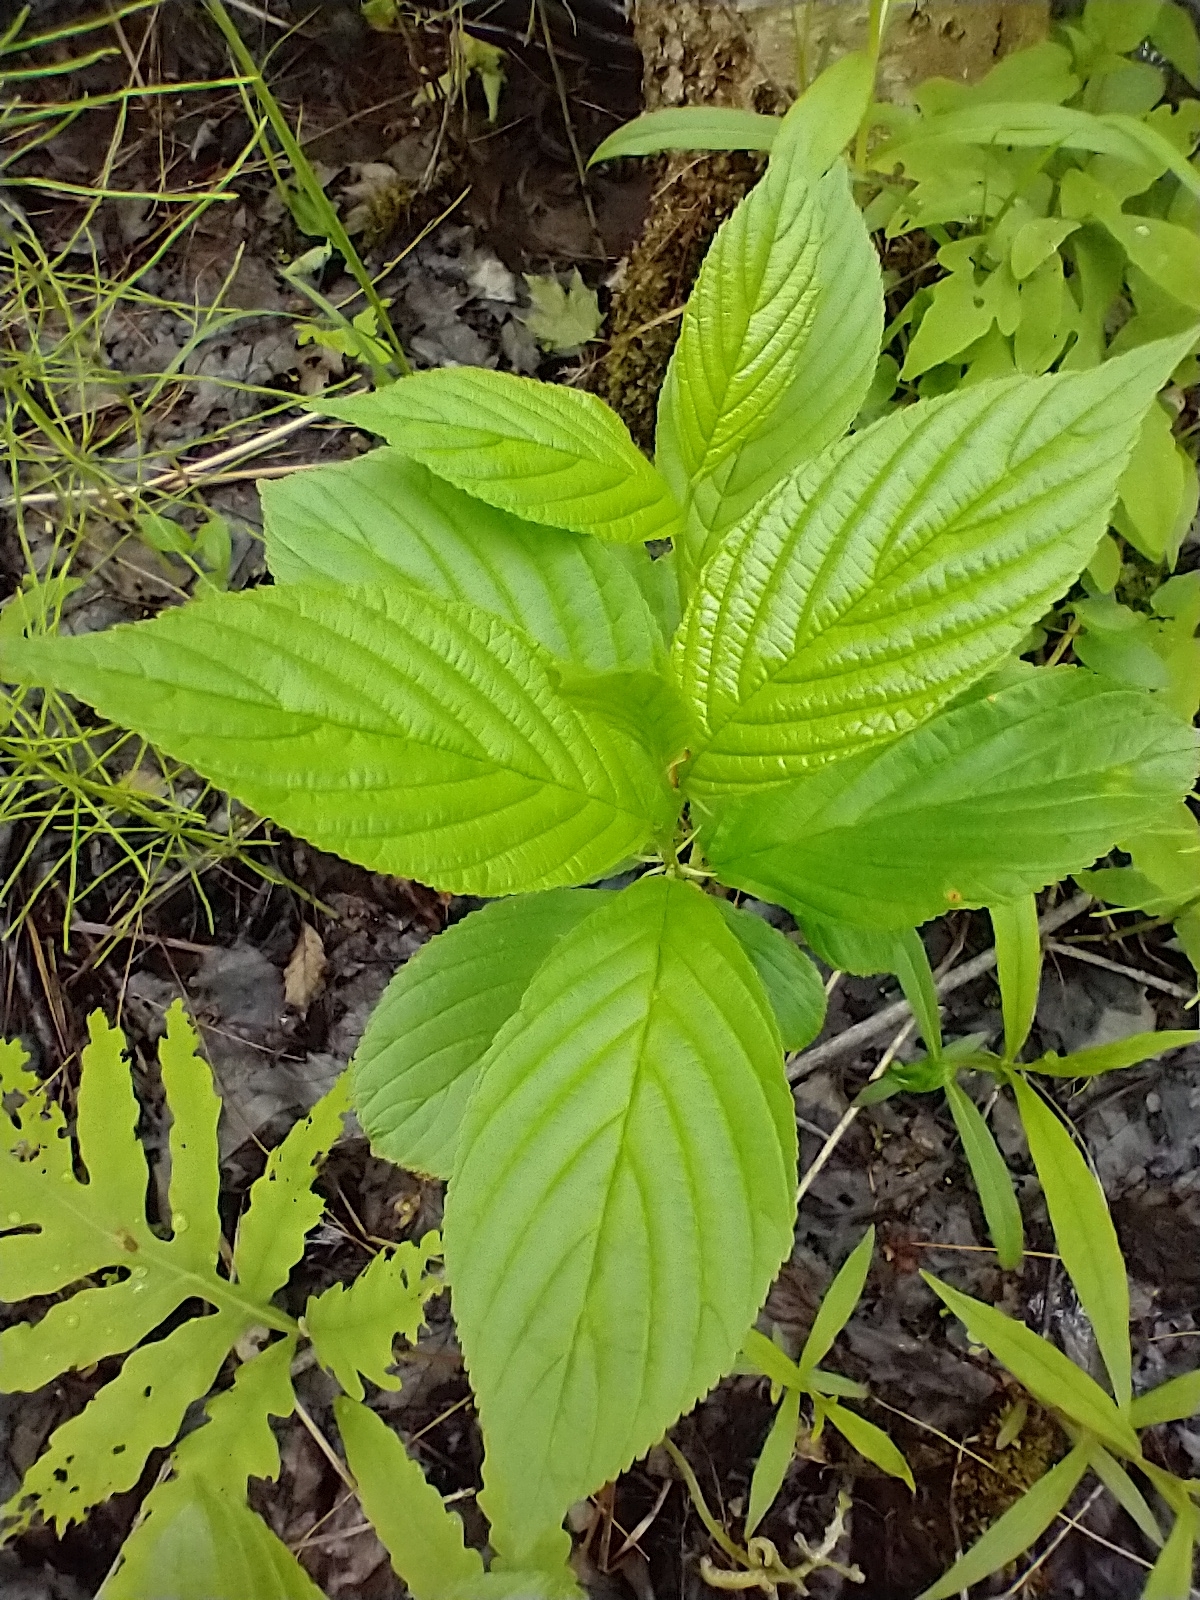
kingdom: Plantae
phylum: Tracheophyta
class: Magnoliopsida
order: Rosales
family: Rhamnaceae
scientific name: Rhamnaceae
